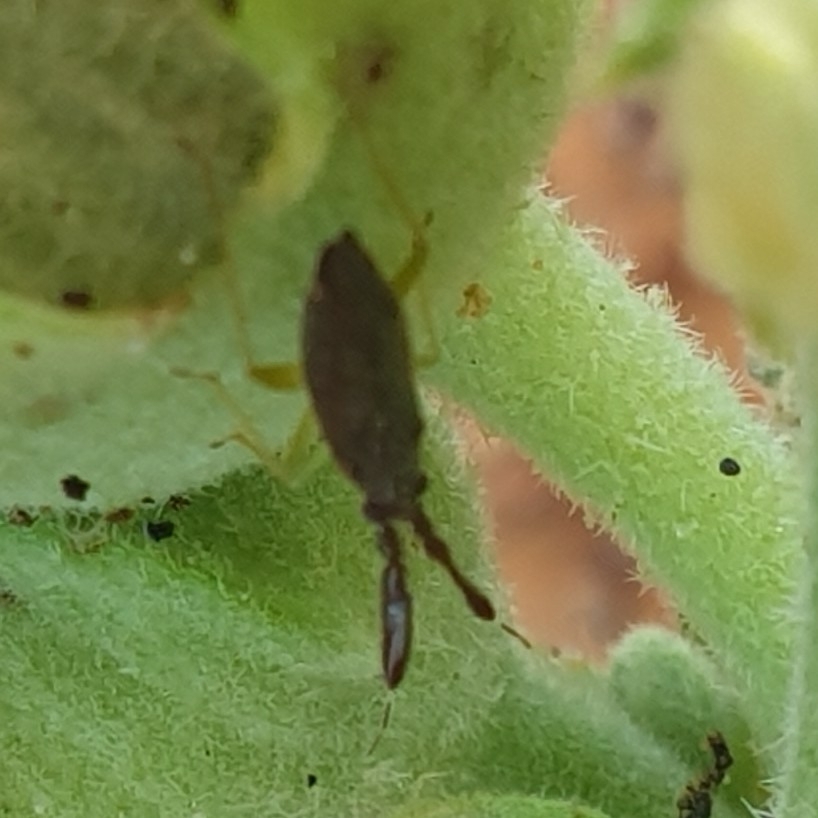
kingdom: Animalia
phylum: Arthropoda
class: Insecta
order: Hemiptera
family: Miridae
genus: Heterotoma
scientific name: Heterotoma planicornis
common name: Plant bug
